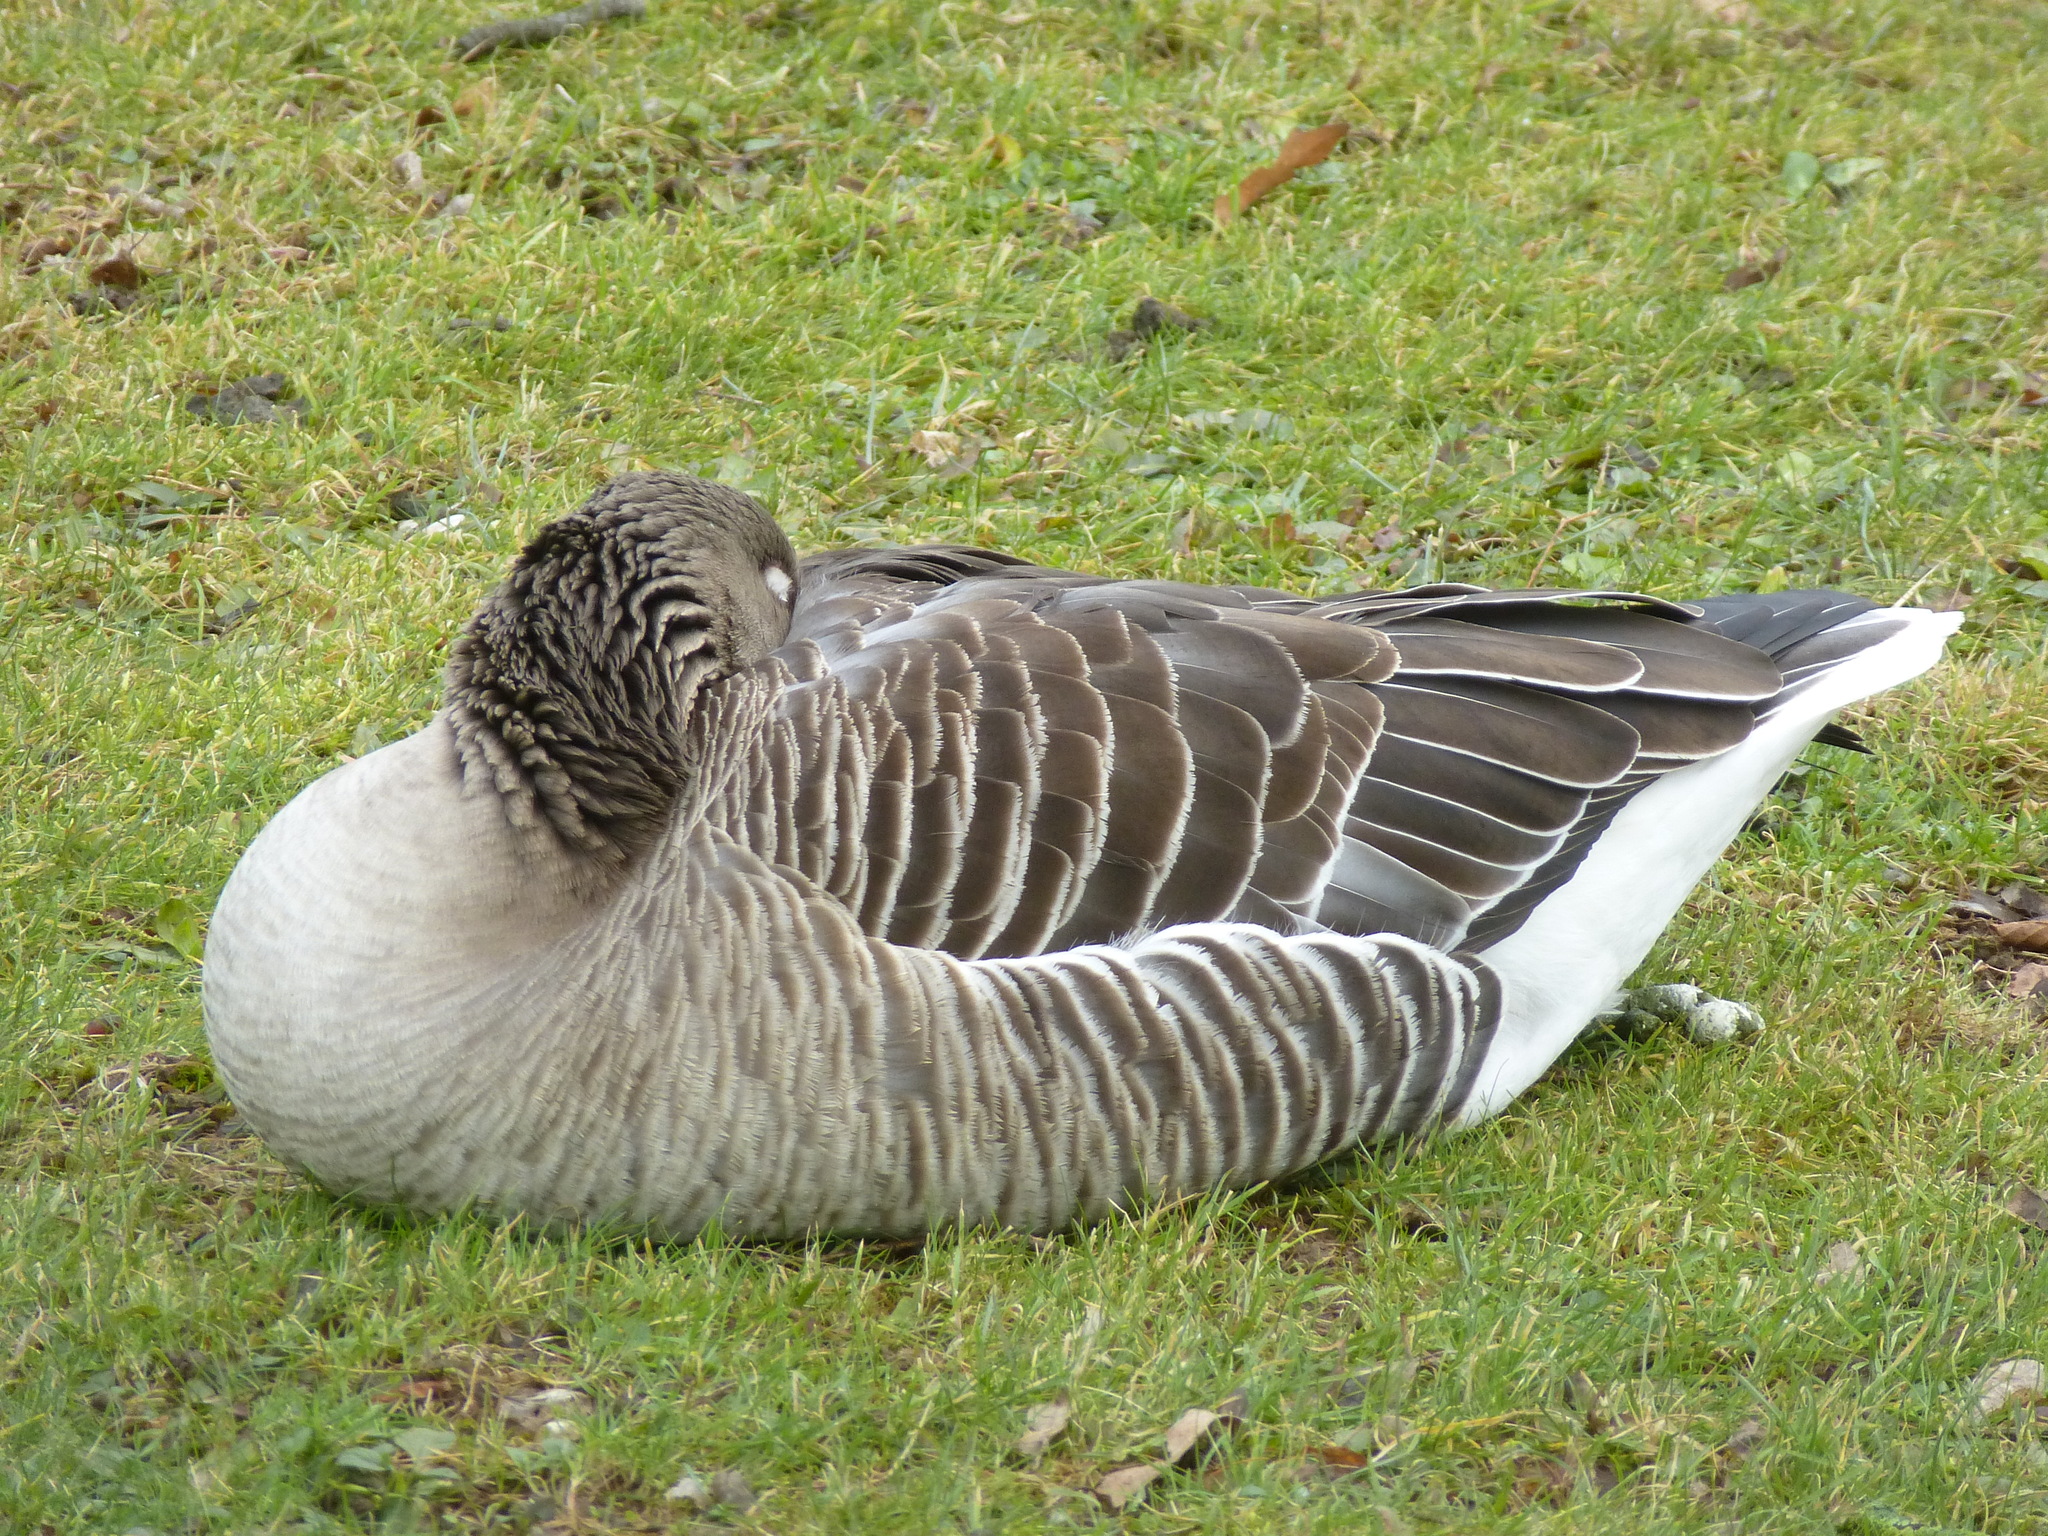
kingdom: Animalia
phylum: Chordata
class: Aves
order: Anseriformes
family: Anatidae
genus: Anser
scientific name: Anser anser
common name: Greylag goose
